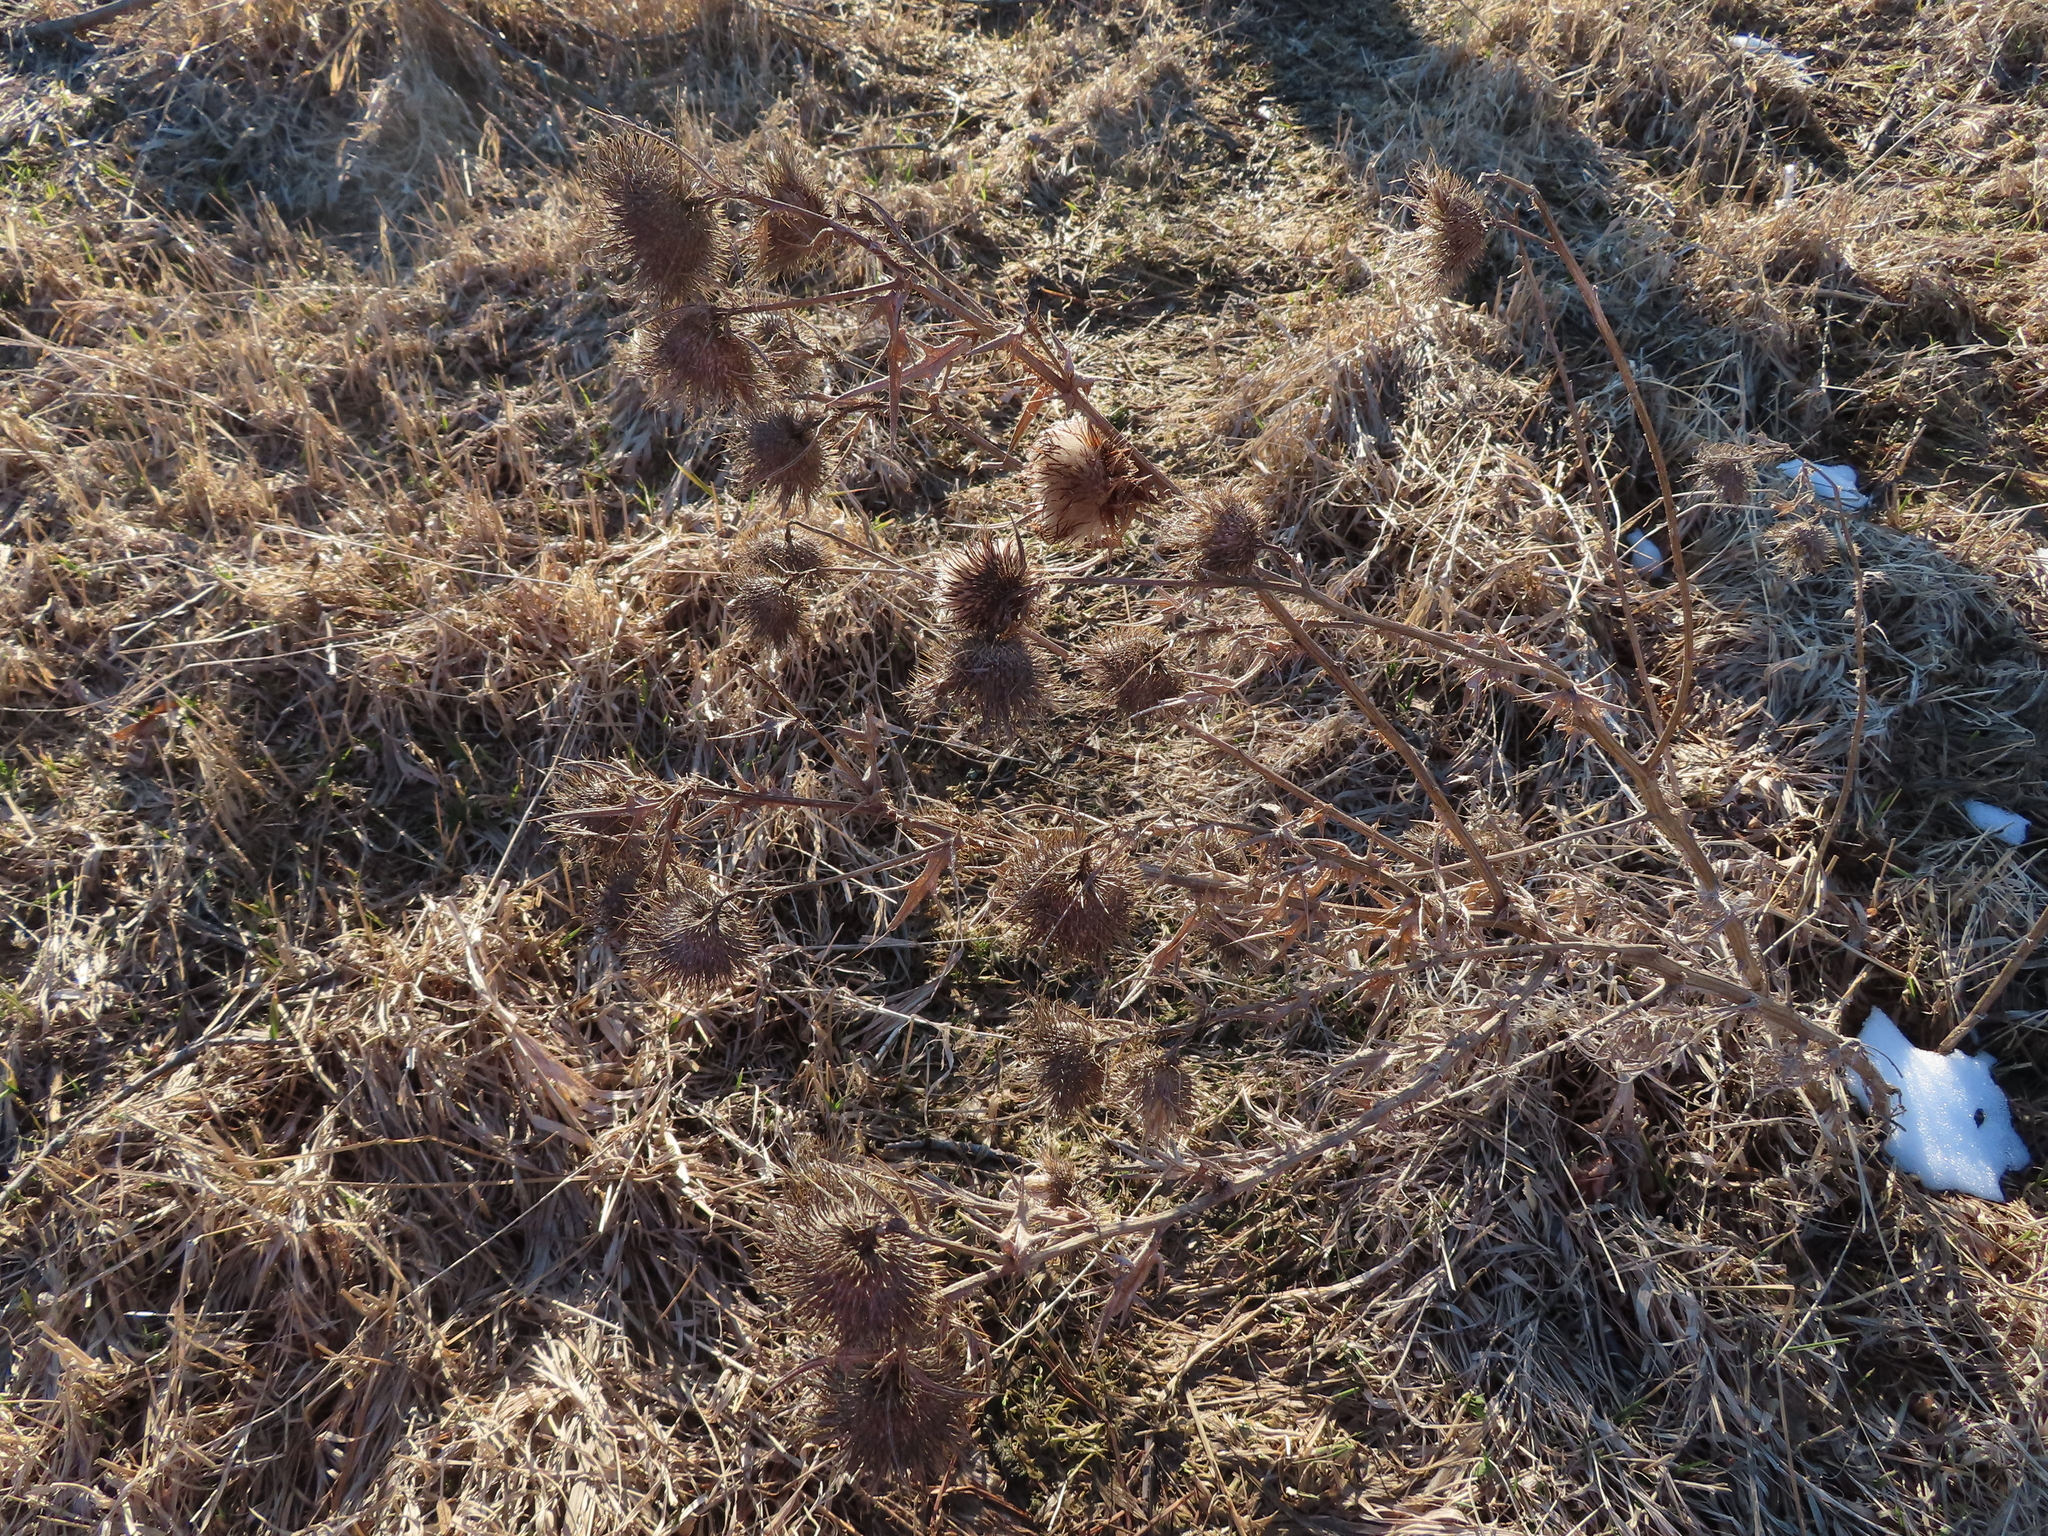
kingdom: Plantae
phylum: Tracheophyta
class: Magnoliopsida
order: Asterales
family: Asteraceae
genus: Cirsium
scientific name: Cirsium vulgare
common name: Bull thistle
